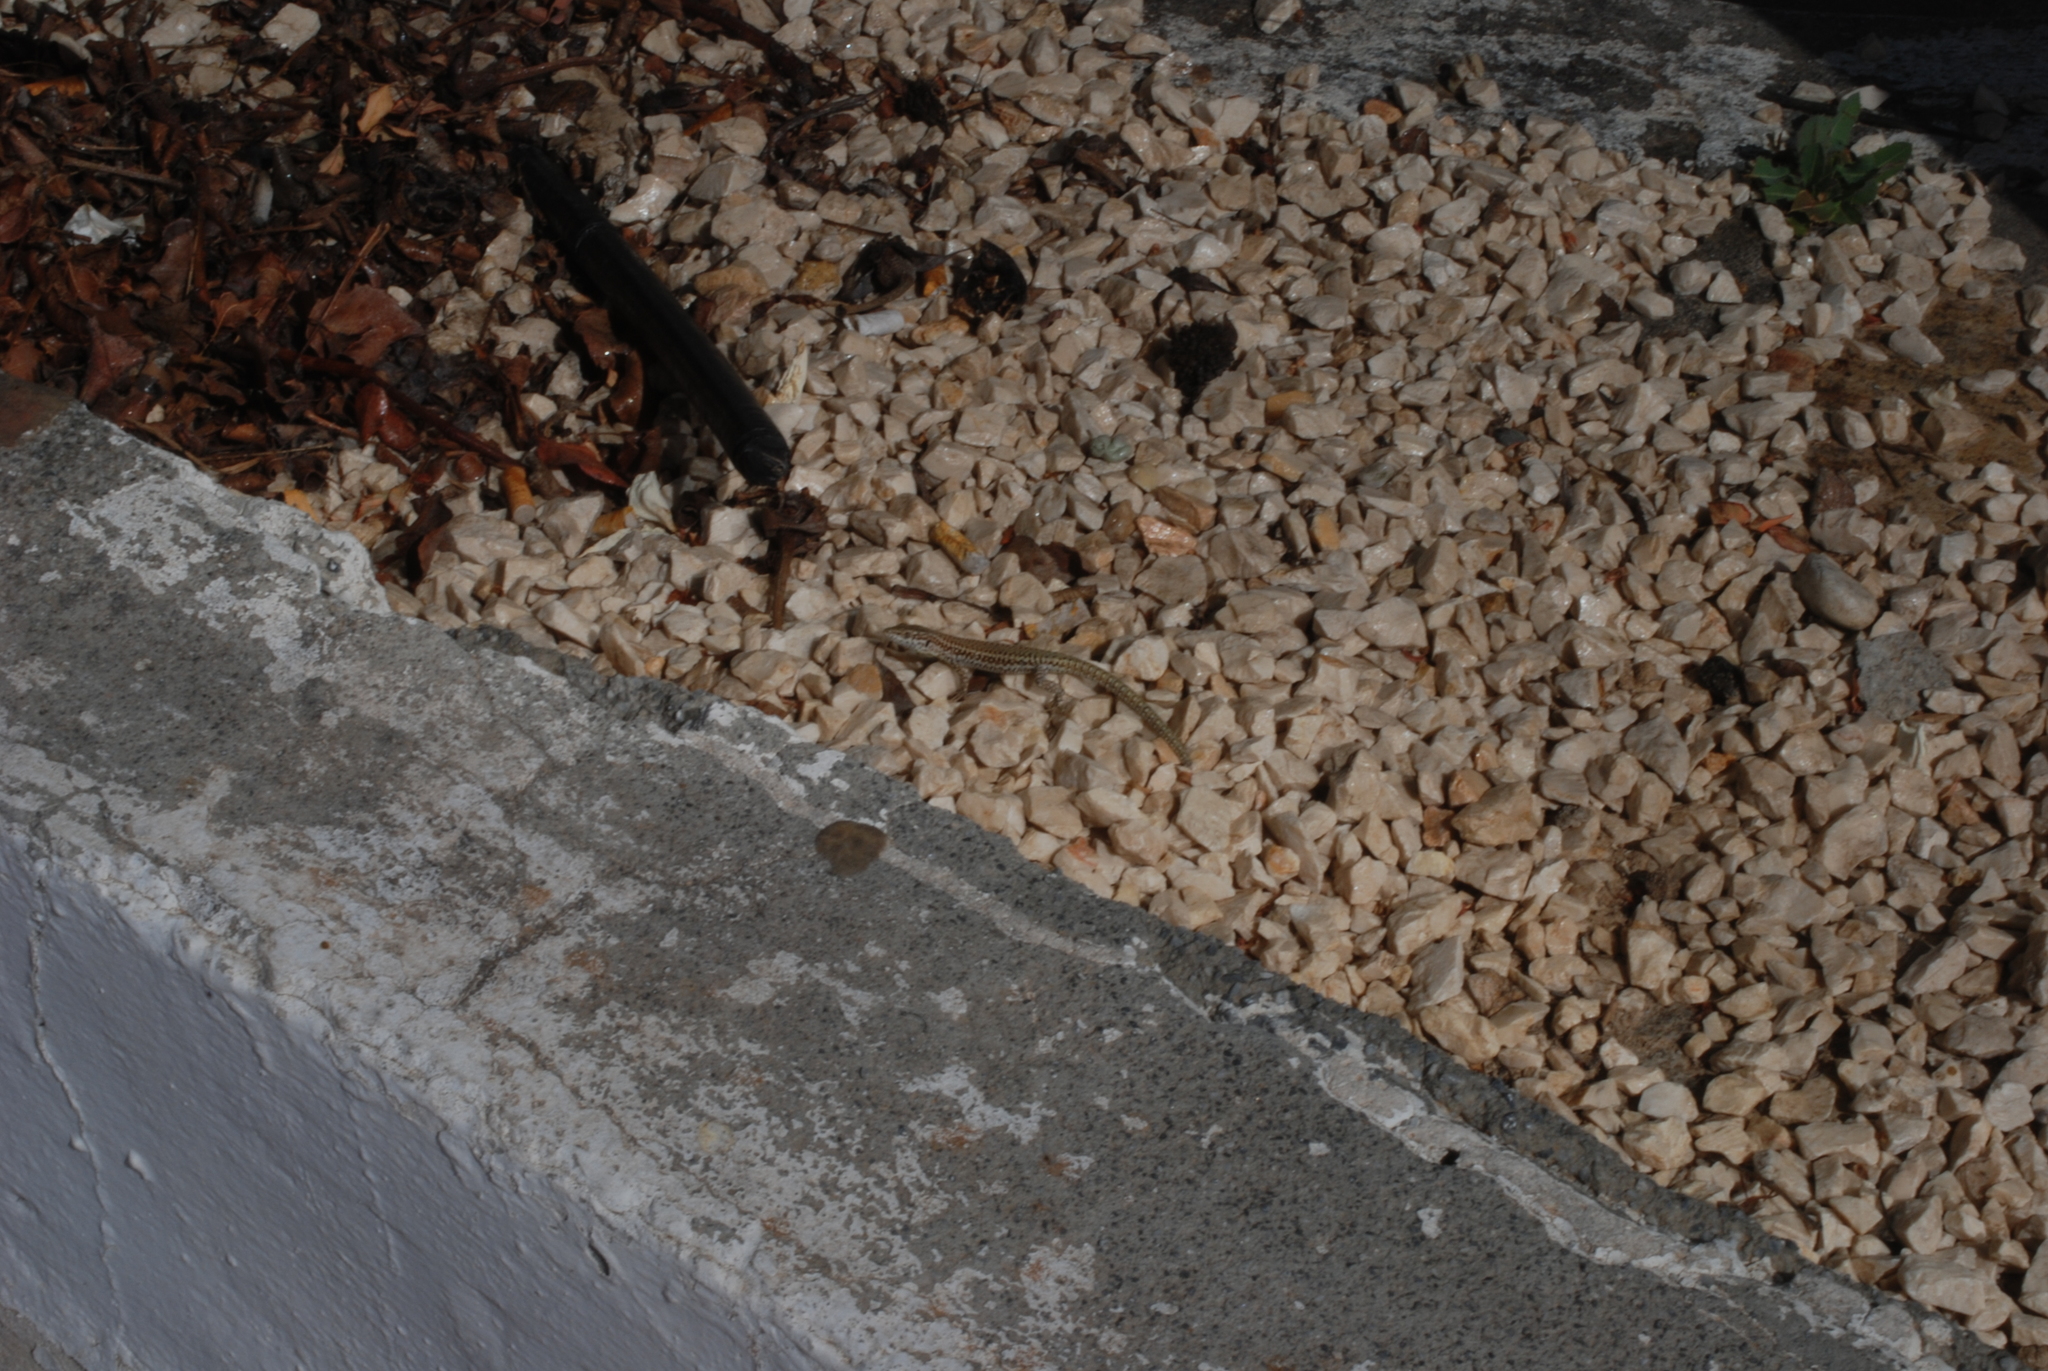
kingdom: Animalia
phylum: Chordata
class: Squamata
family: Lacertidae
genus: Podarcis
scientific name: Podarcis vaucheri
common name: Vaucher's wall lizard
